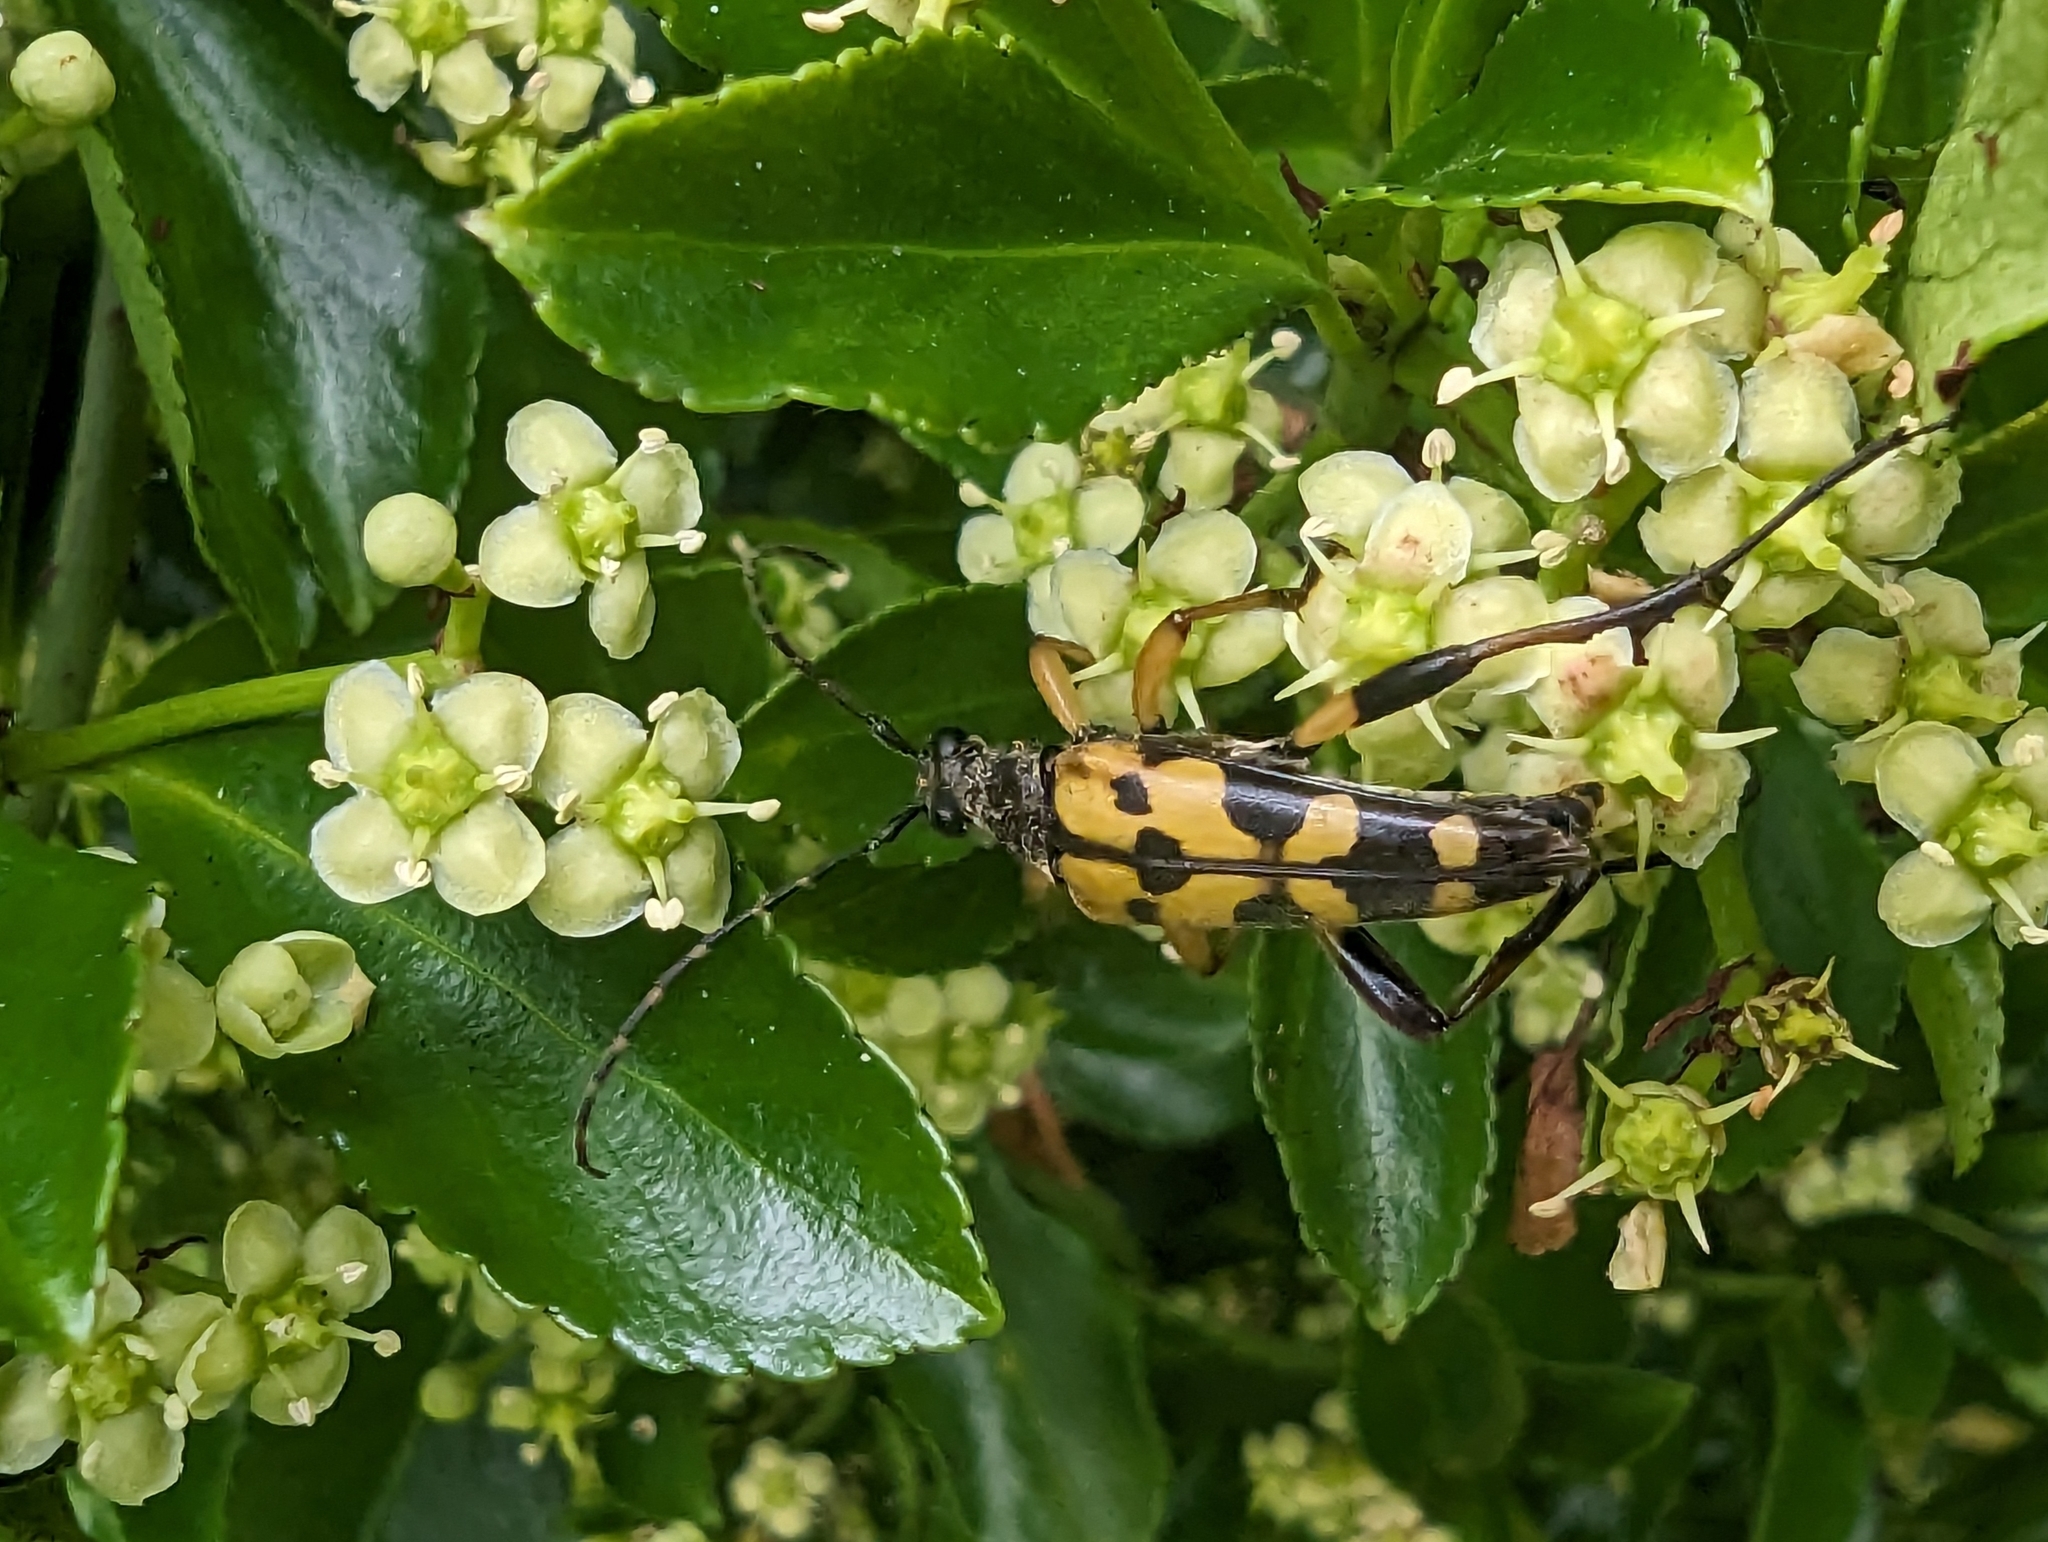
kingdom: Animalia
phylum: Arthropoda
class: Insecta
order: Coleoptera
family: Cerambycidae
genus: Rutpela
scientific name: Rutpela maculata
